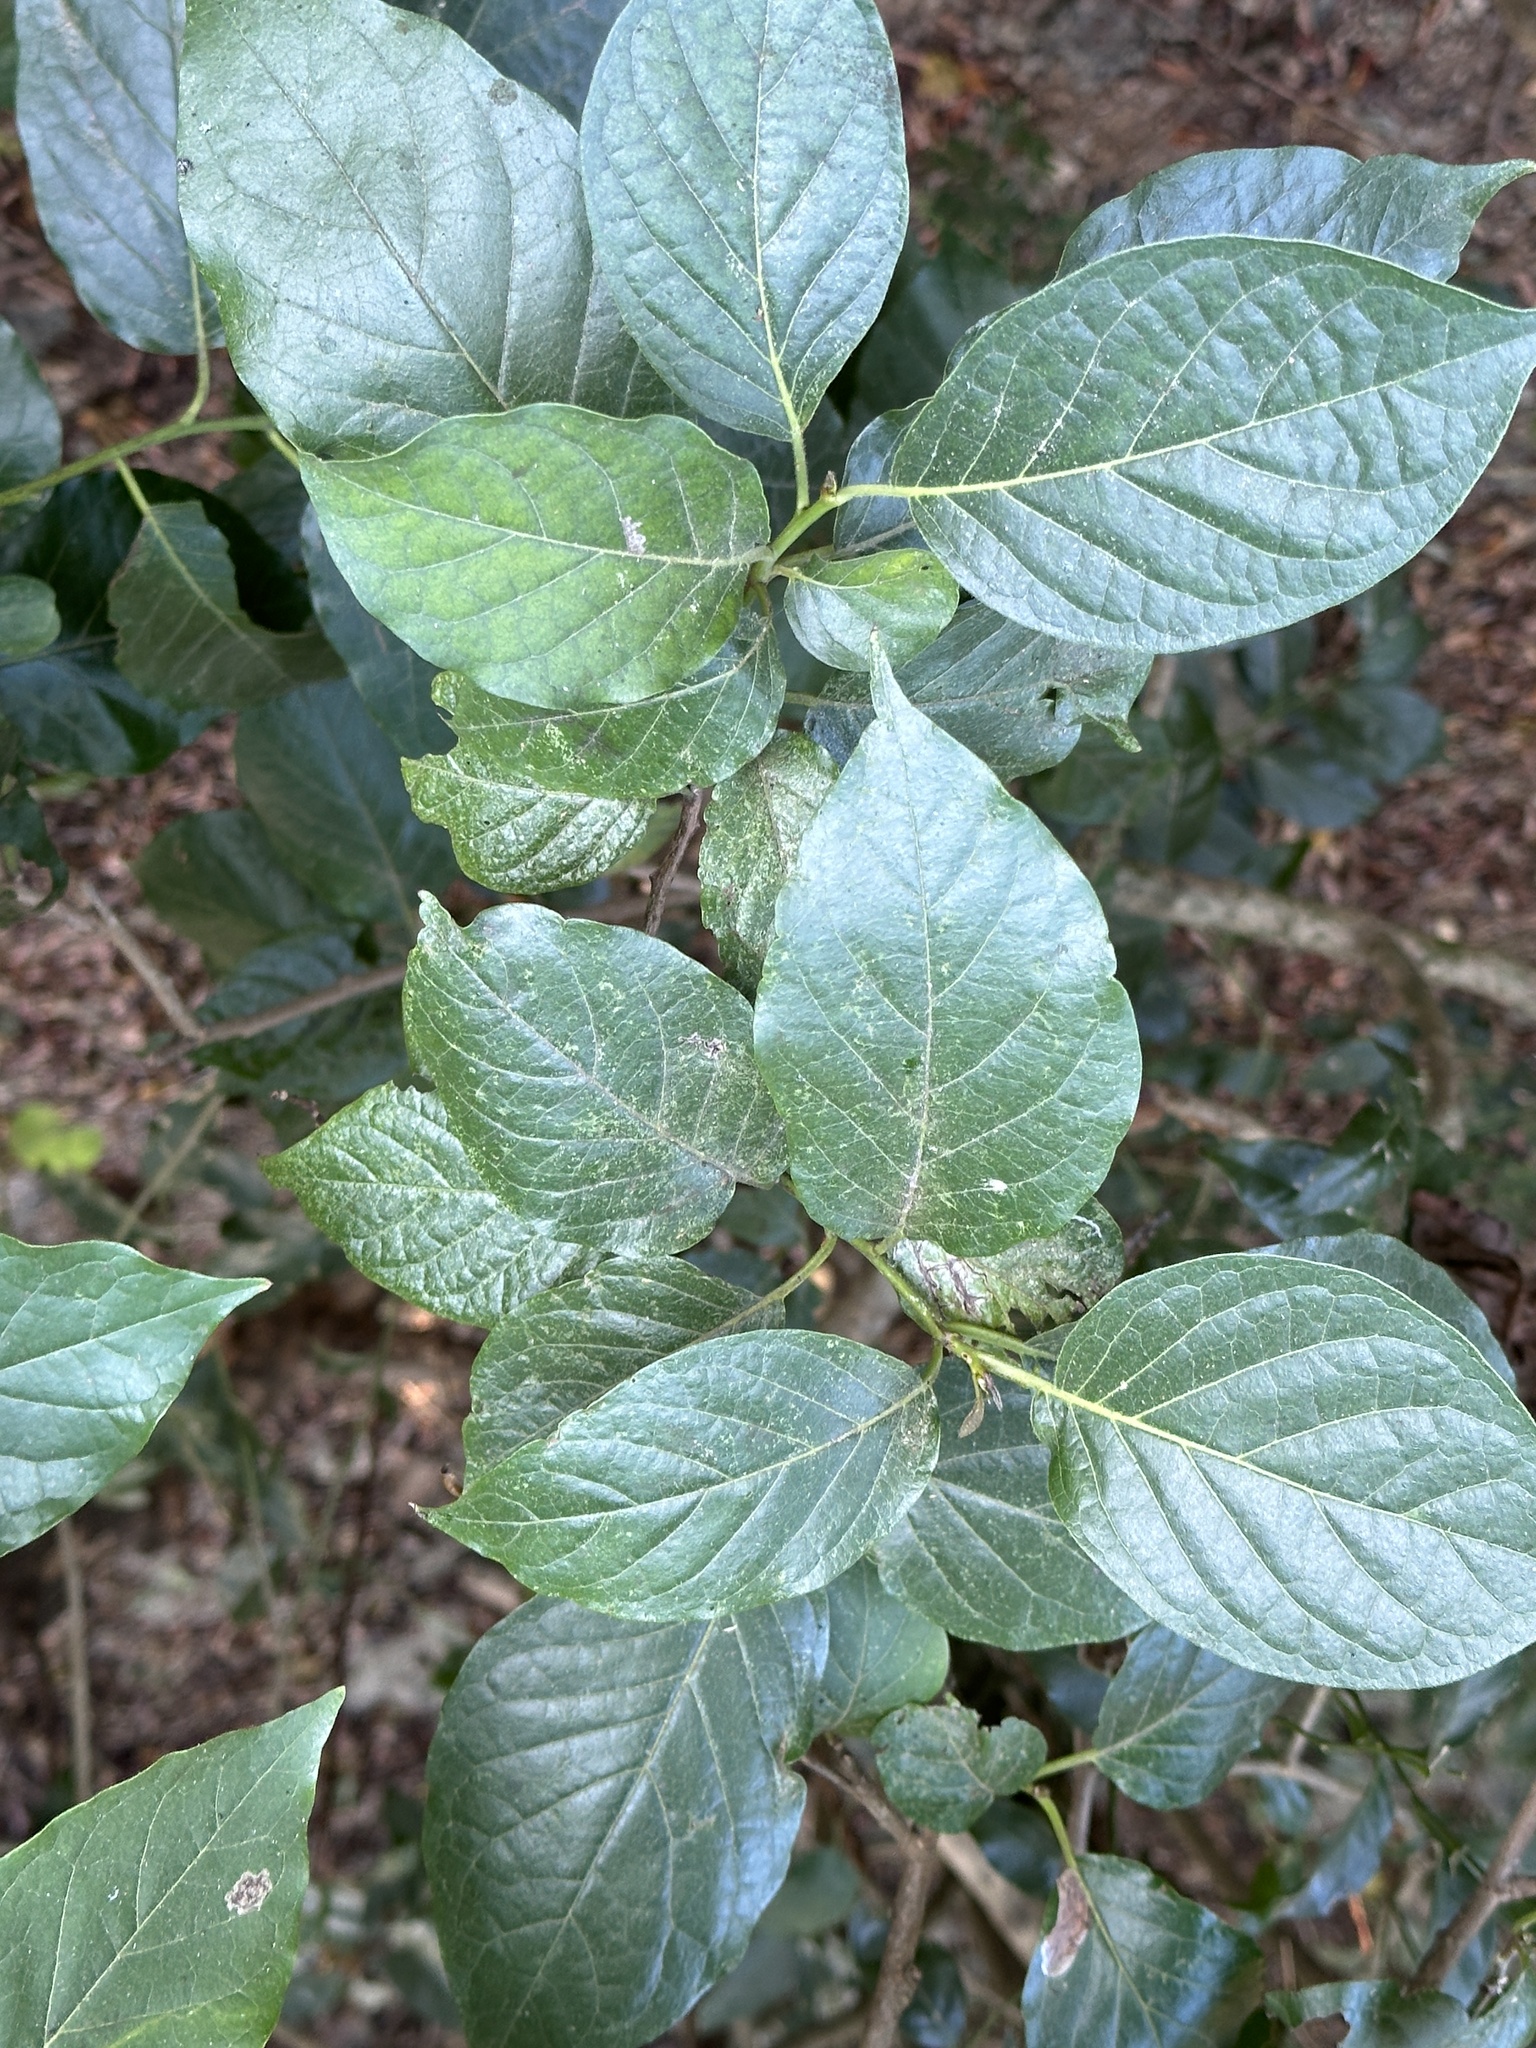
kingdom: Plantae
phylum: Tracheophyta
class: Magnoliopsida
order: Boraginales
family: Ehretiaceae
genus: Ehretia
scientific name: Ehretia resinosa
